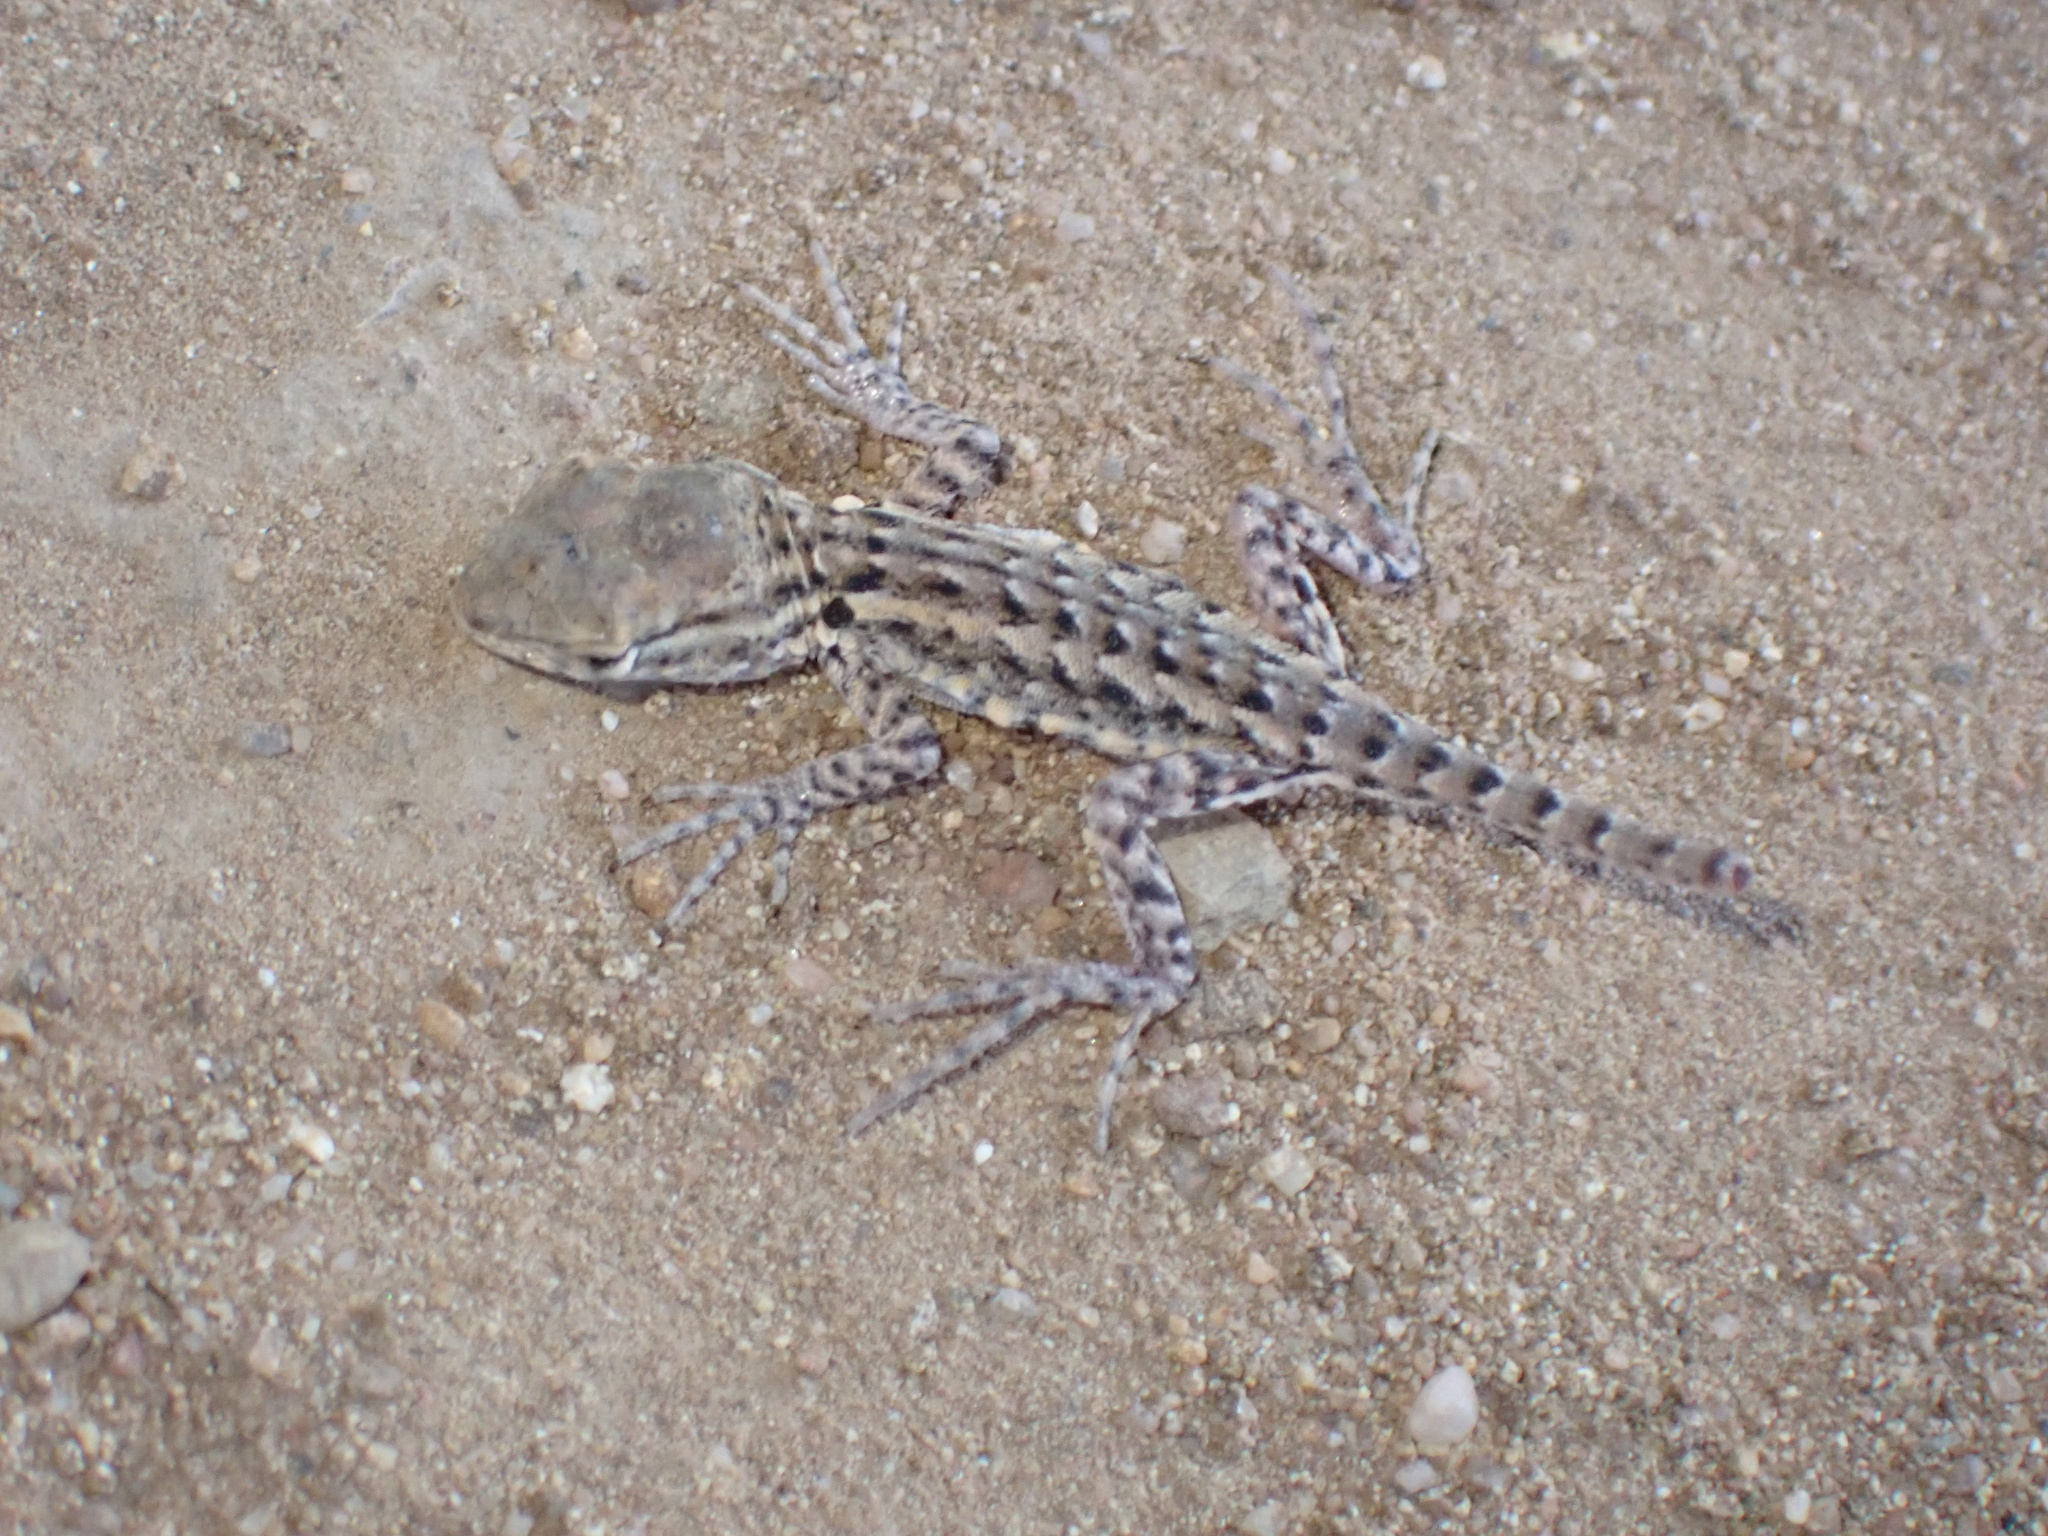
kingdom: Animalia
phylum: Chordata
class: Squamata
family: Phrynosomatidae
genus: Uta
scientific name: Uta stansburiana
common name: Side-blotched lizard
